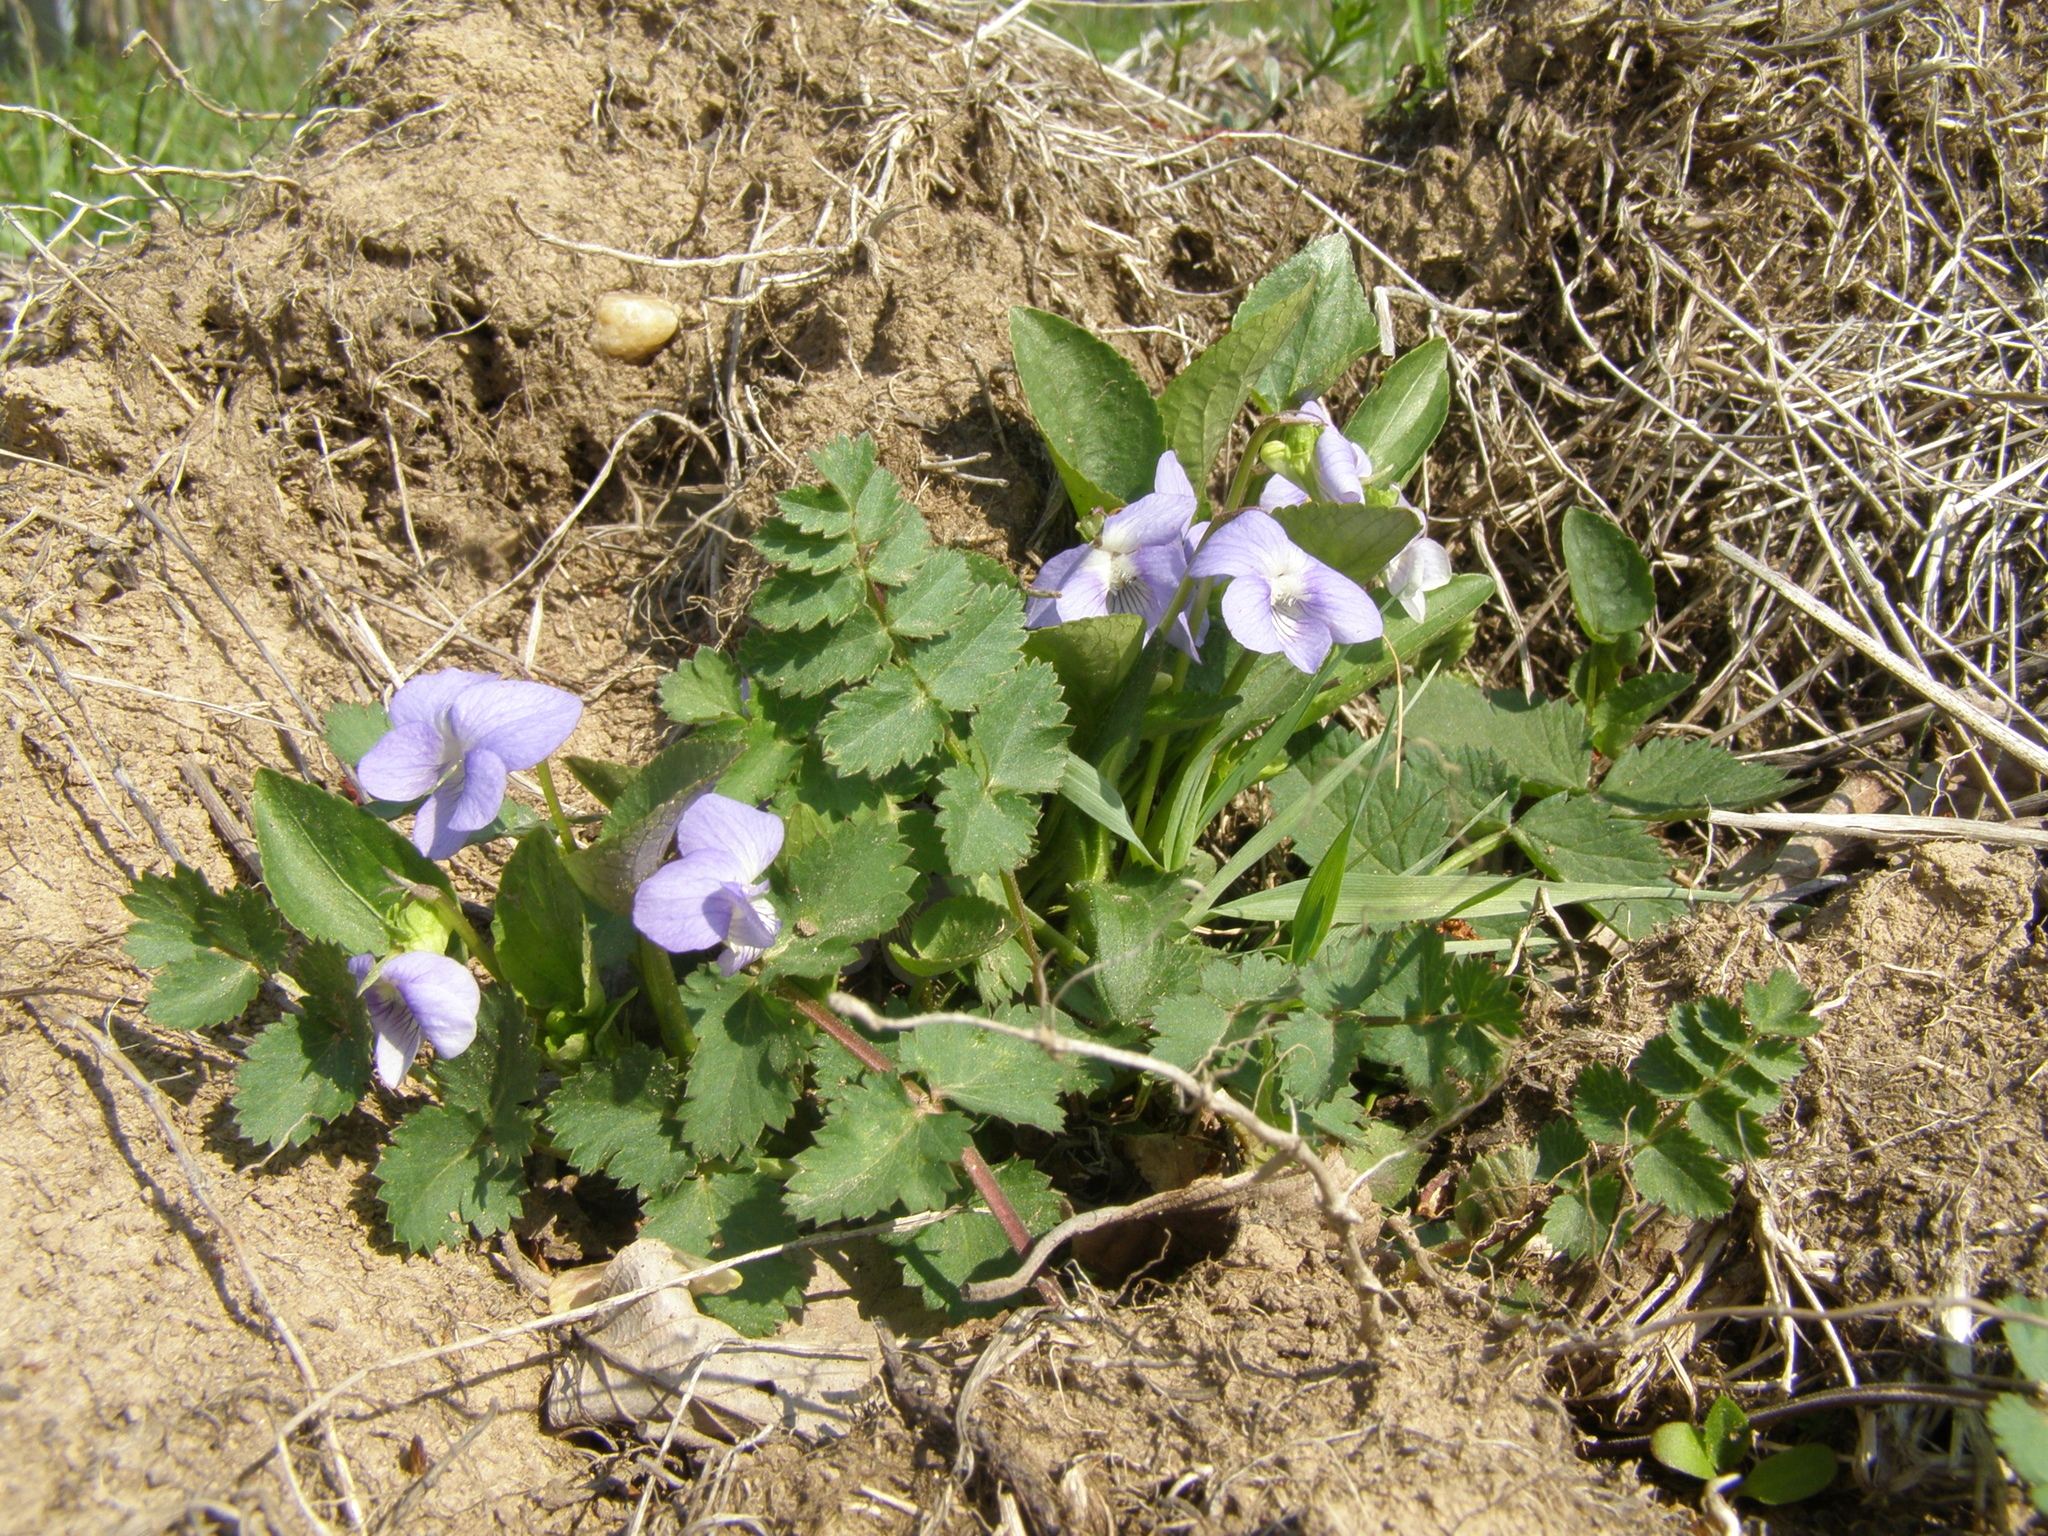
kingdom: Plantae
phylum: Tracheophyta
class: Magnoliopsida
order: Malpighiales
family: Violaceae
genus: Viola
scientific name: Viola canina
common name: Heath dog-violet
